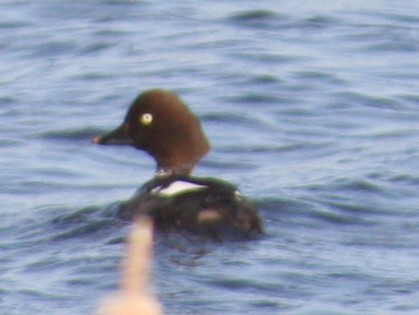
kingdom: Animalia
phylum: Chordata
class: Aves
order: Anseriformes
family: Anatidae
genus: Bucephala
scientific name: Bucephala clangula
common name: Common goldeneye
